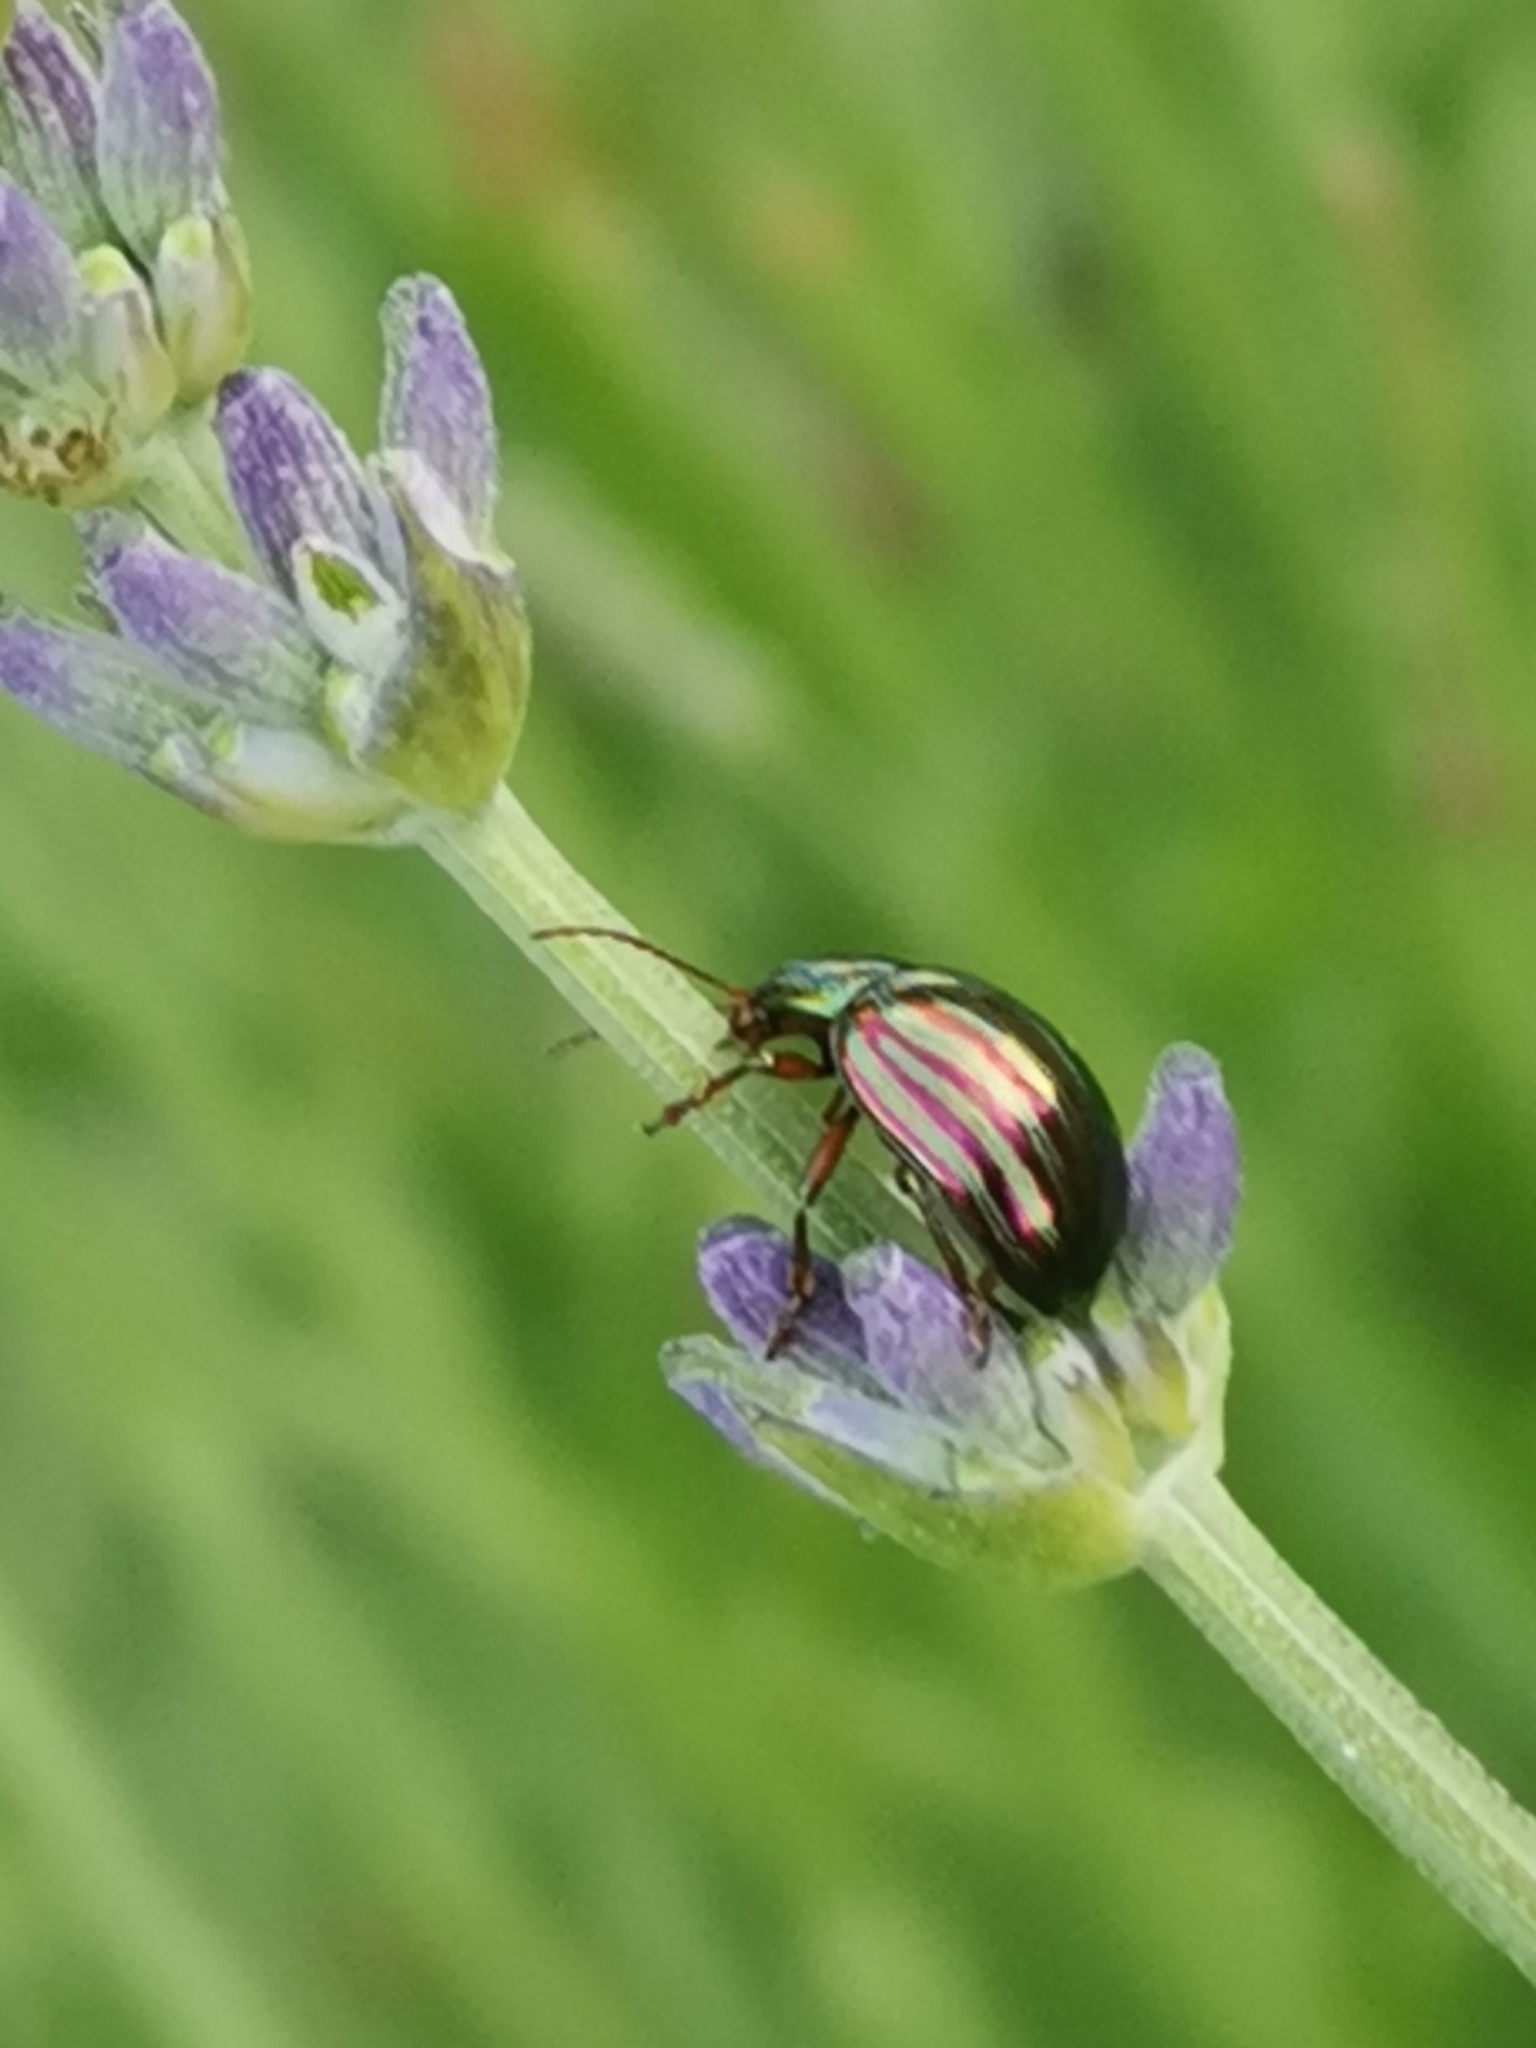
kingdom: Animalia
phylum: Arthropoda
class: Insecta
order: Coleoptera
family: Chrysomelidae
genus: Chrysolina
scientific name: Chrysolina americana
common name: Rosemary beetle
